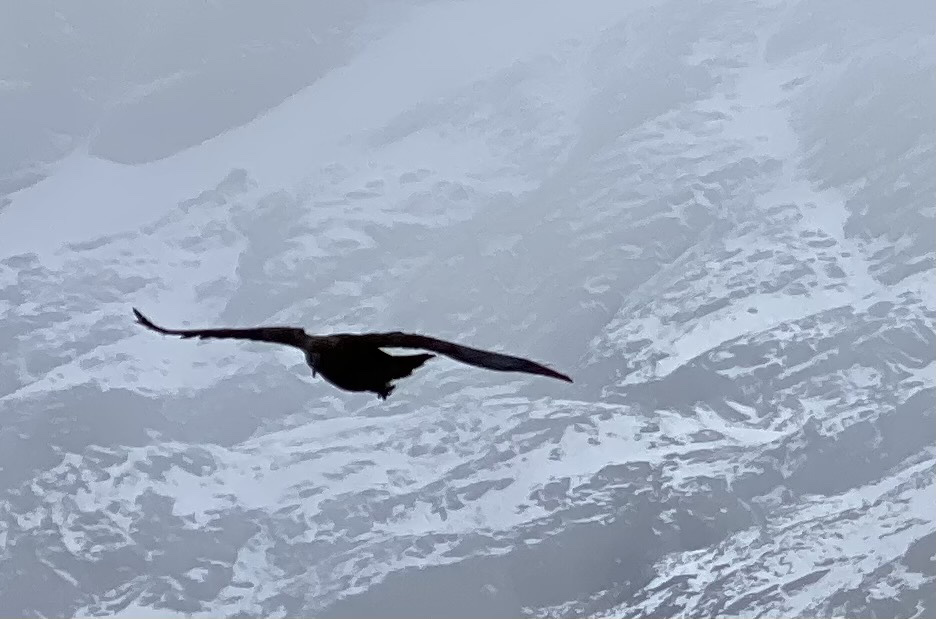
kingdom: Animalia
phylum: Chordata
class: Aves
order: Psittaciformes
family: Psittacidae
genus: Nestor
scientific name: Nestor notabilis
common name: Kea
